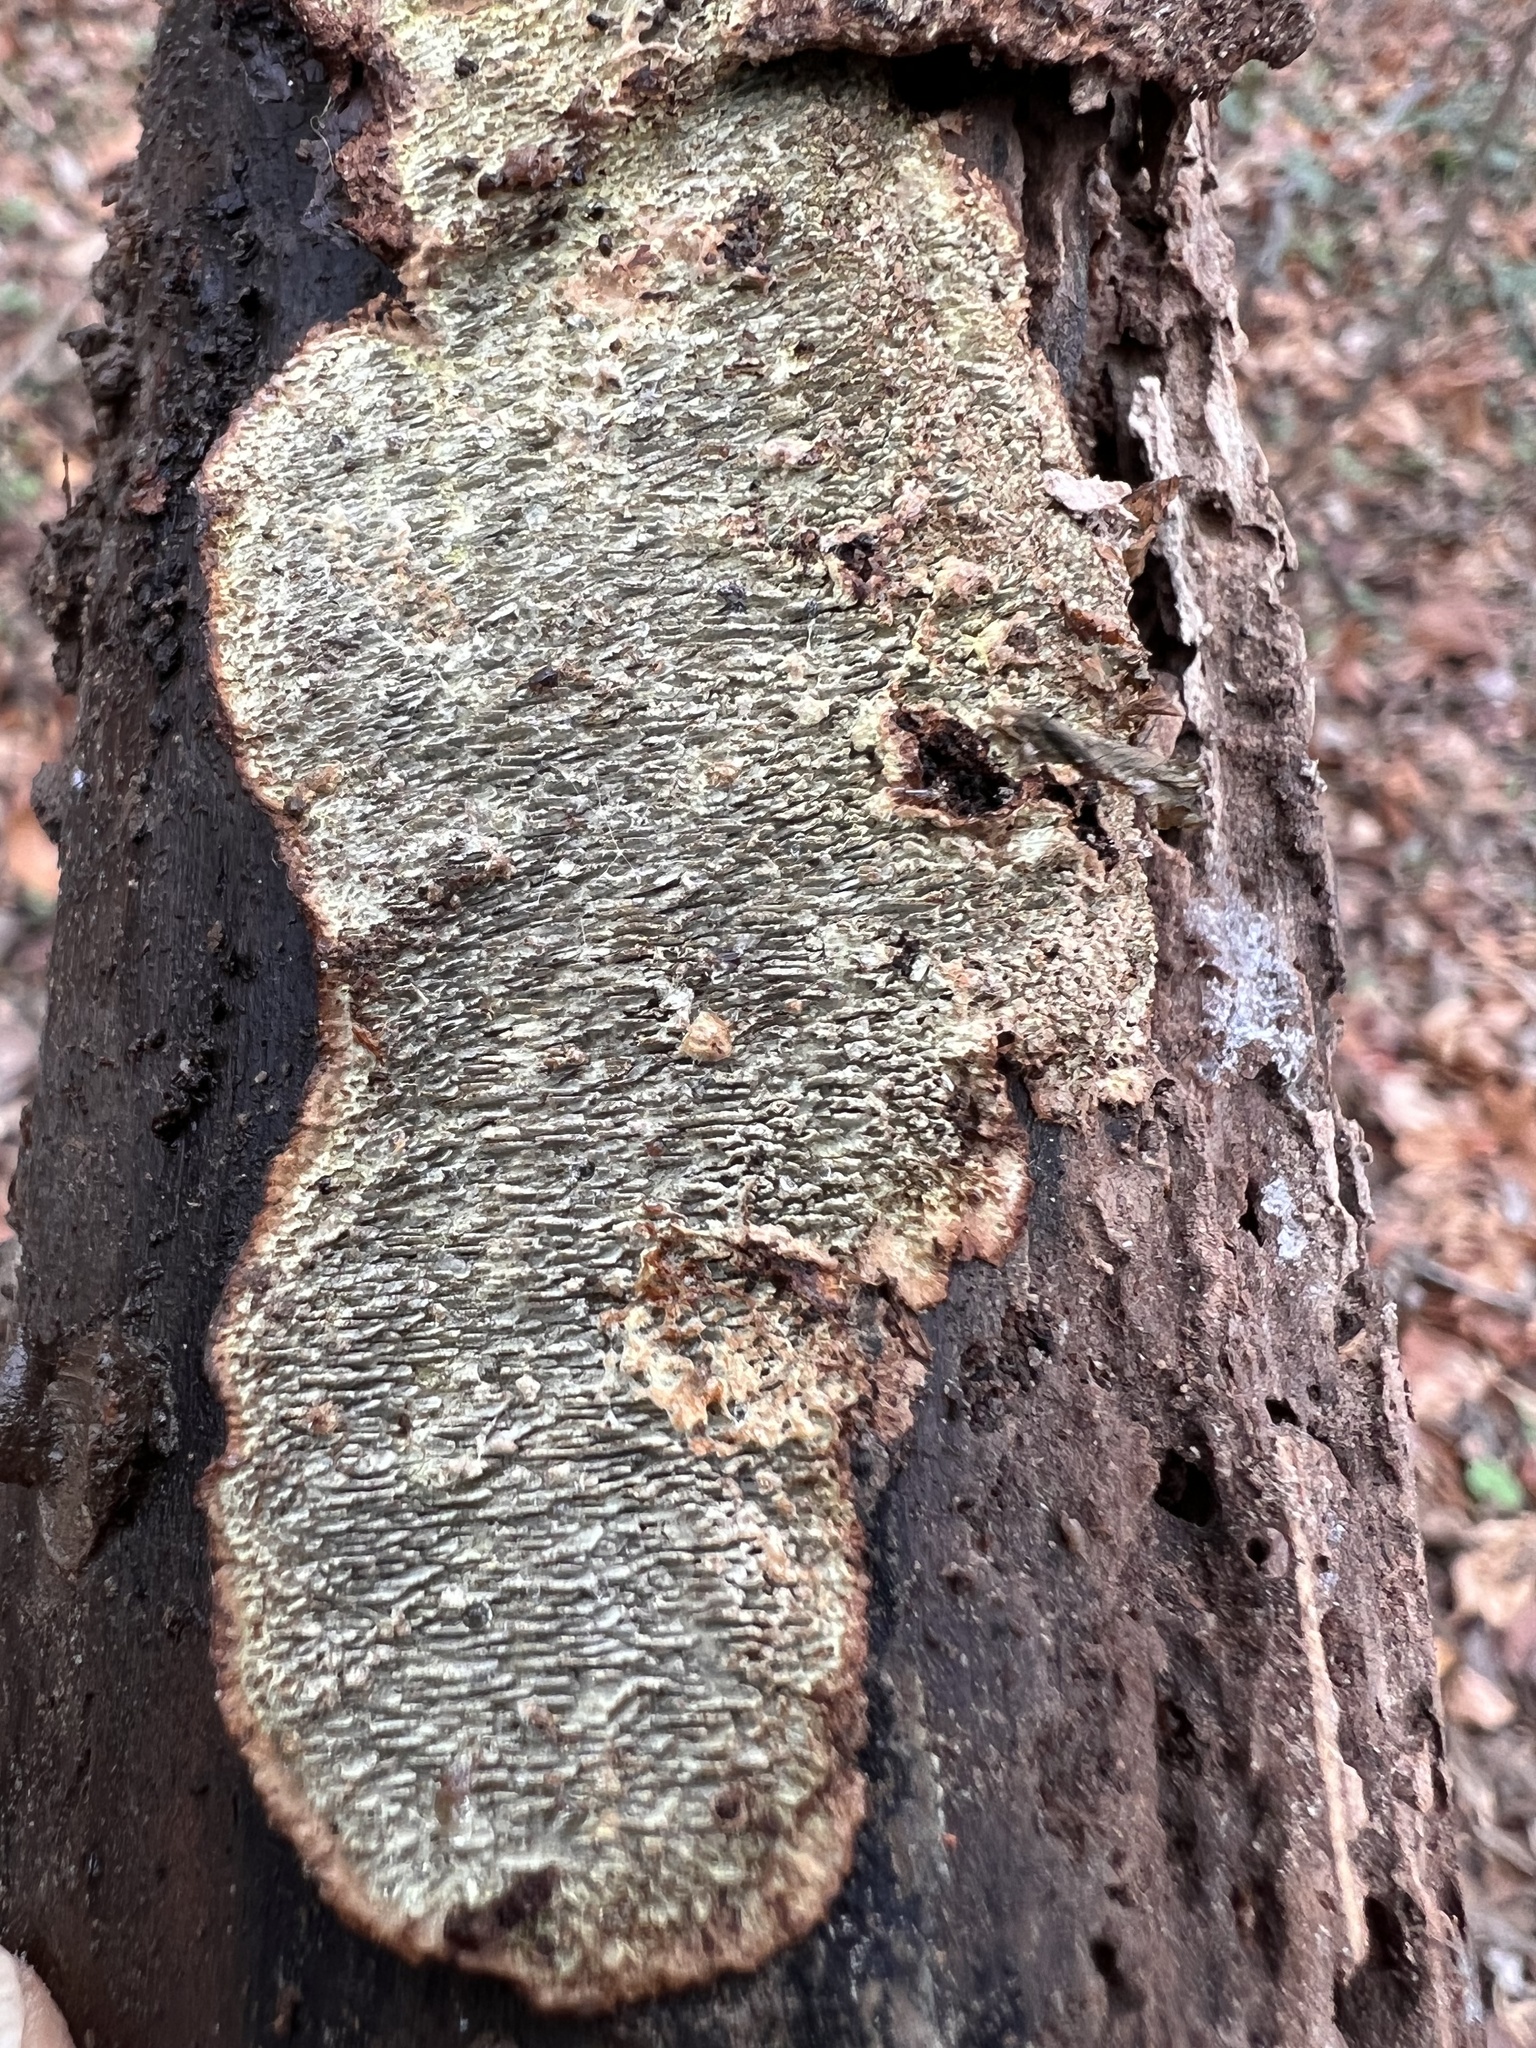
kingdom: Fungi
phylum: Basidiomycota
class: Agaricomycetes
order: Polyporales
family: Polyporaceae
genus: Dentocorticium
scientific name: Dentocorticium portoricense
